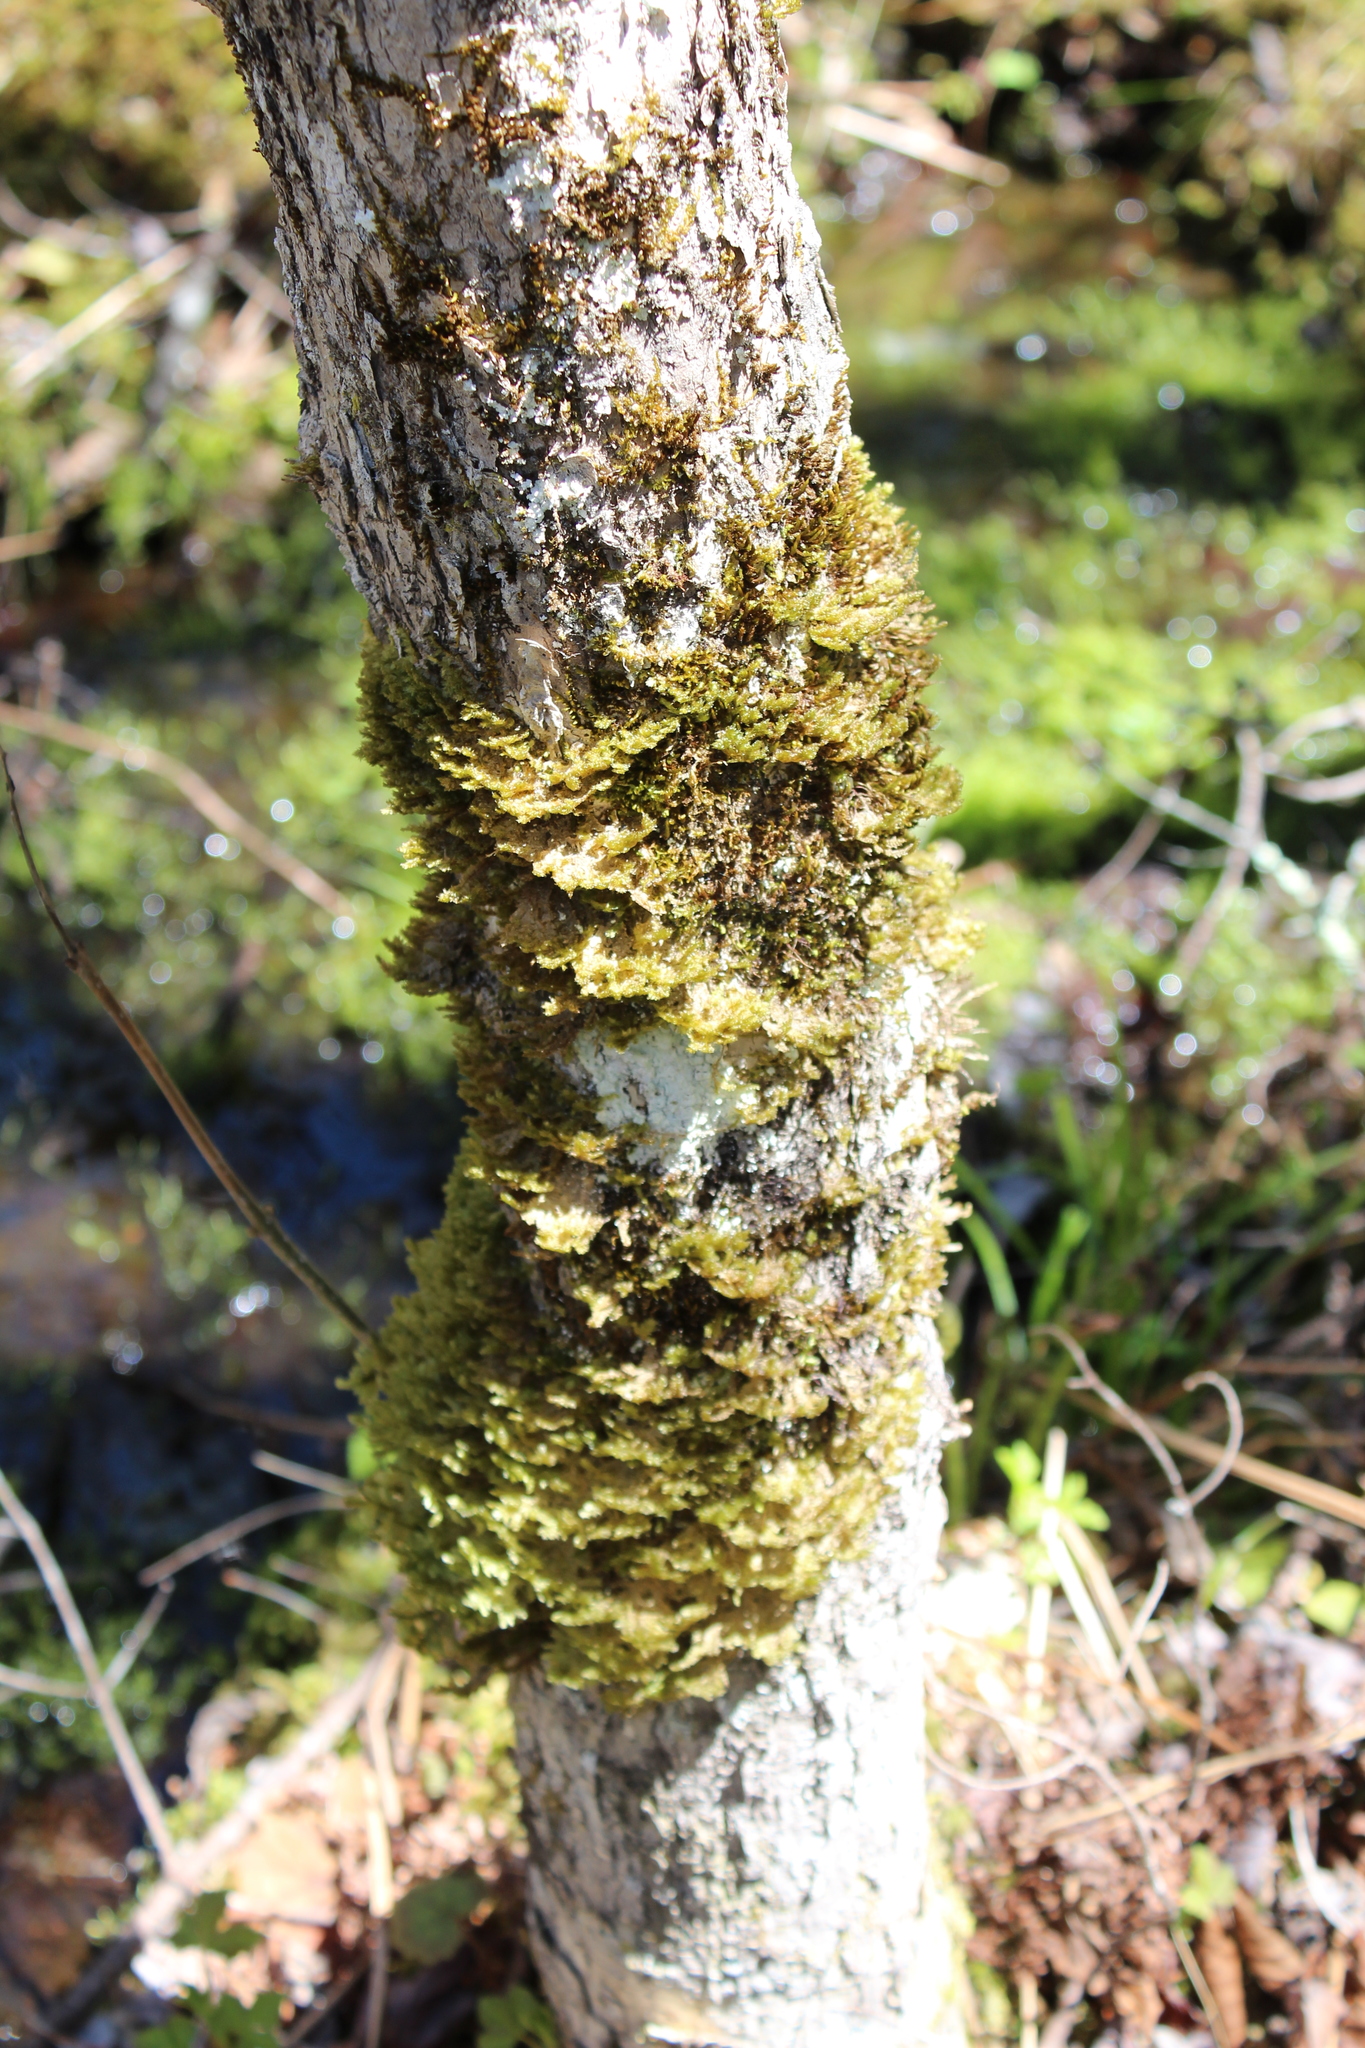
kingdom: Plantae
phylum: Bryophyta
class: Bryopsida
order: Hypnales
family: Neckeraceae
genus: Neckera
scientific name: Neckera pennata
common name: Feathery neckera
